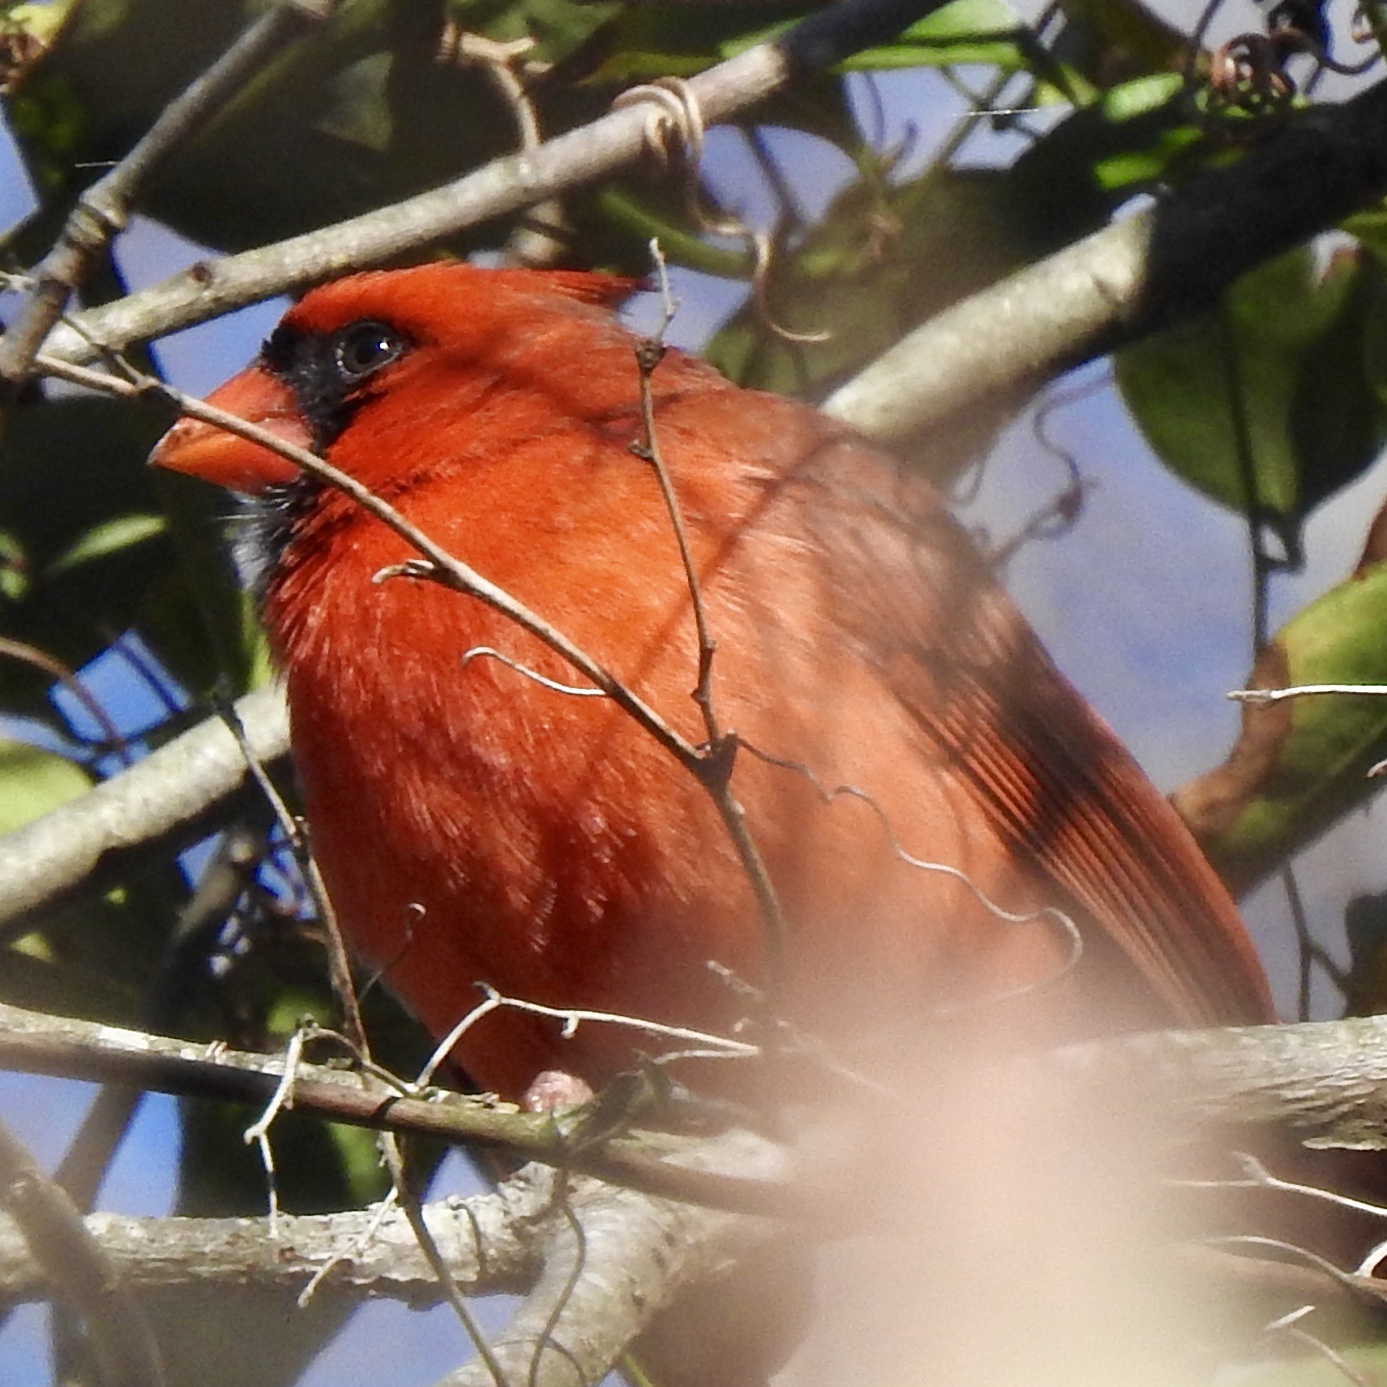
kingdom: Animalia
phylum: Chordata
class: Aves
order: Passeriformes
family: Cardinalidae
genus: Cardinalis
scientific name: Cardinalis cardinalis
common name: Northern cardinal
